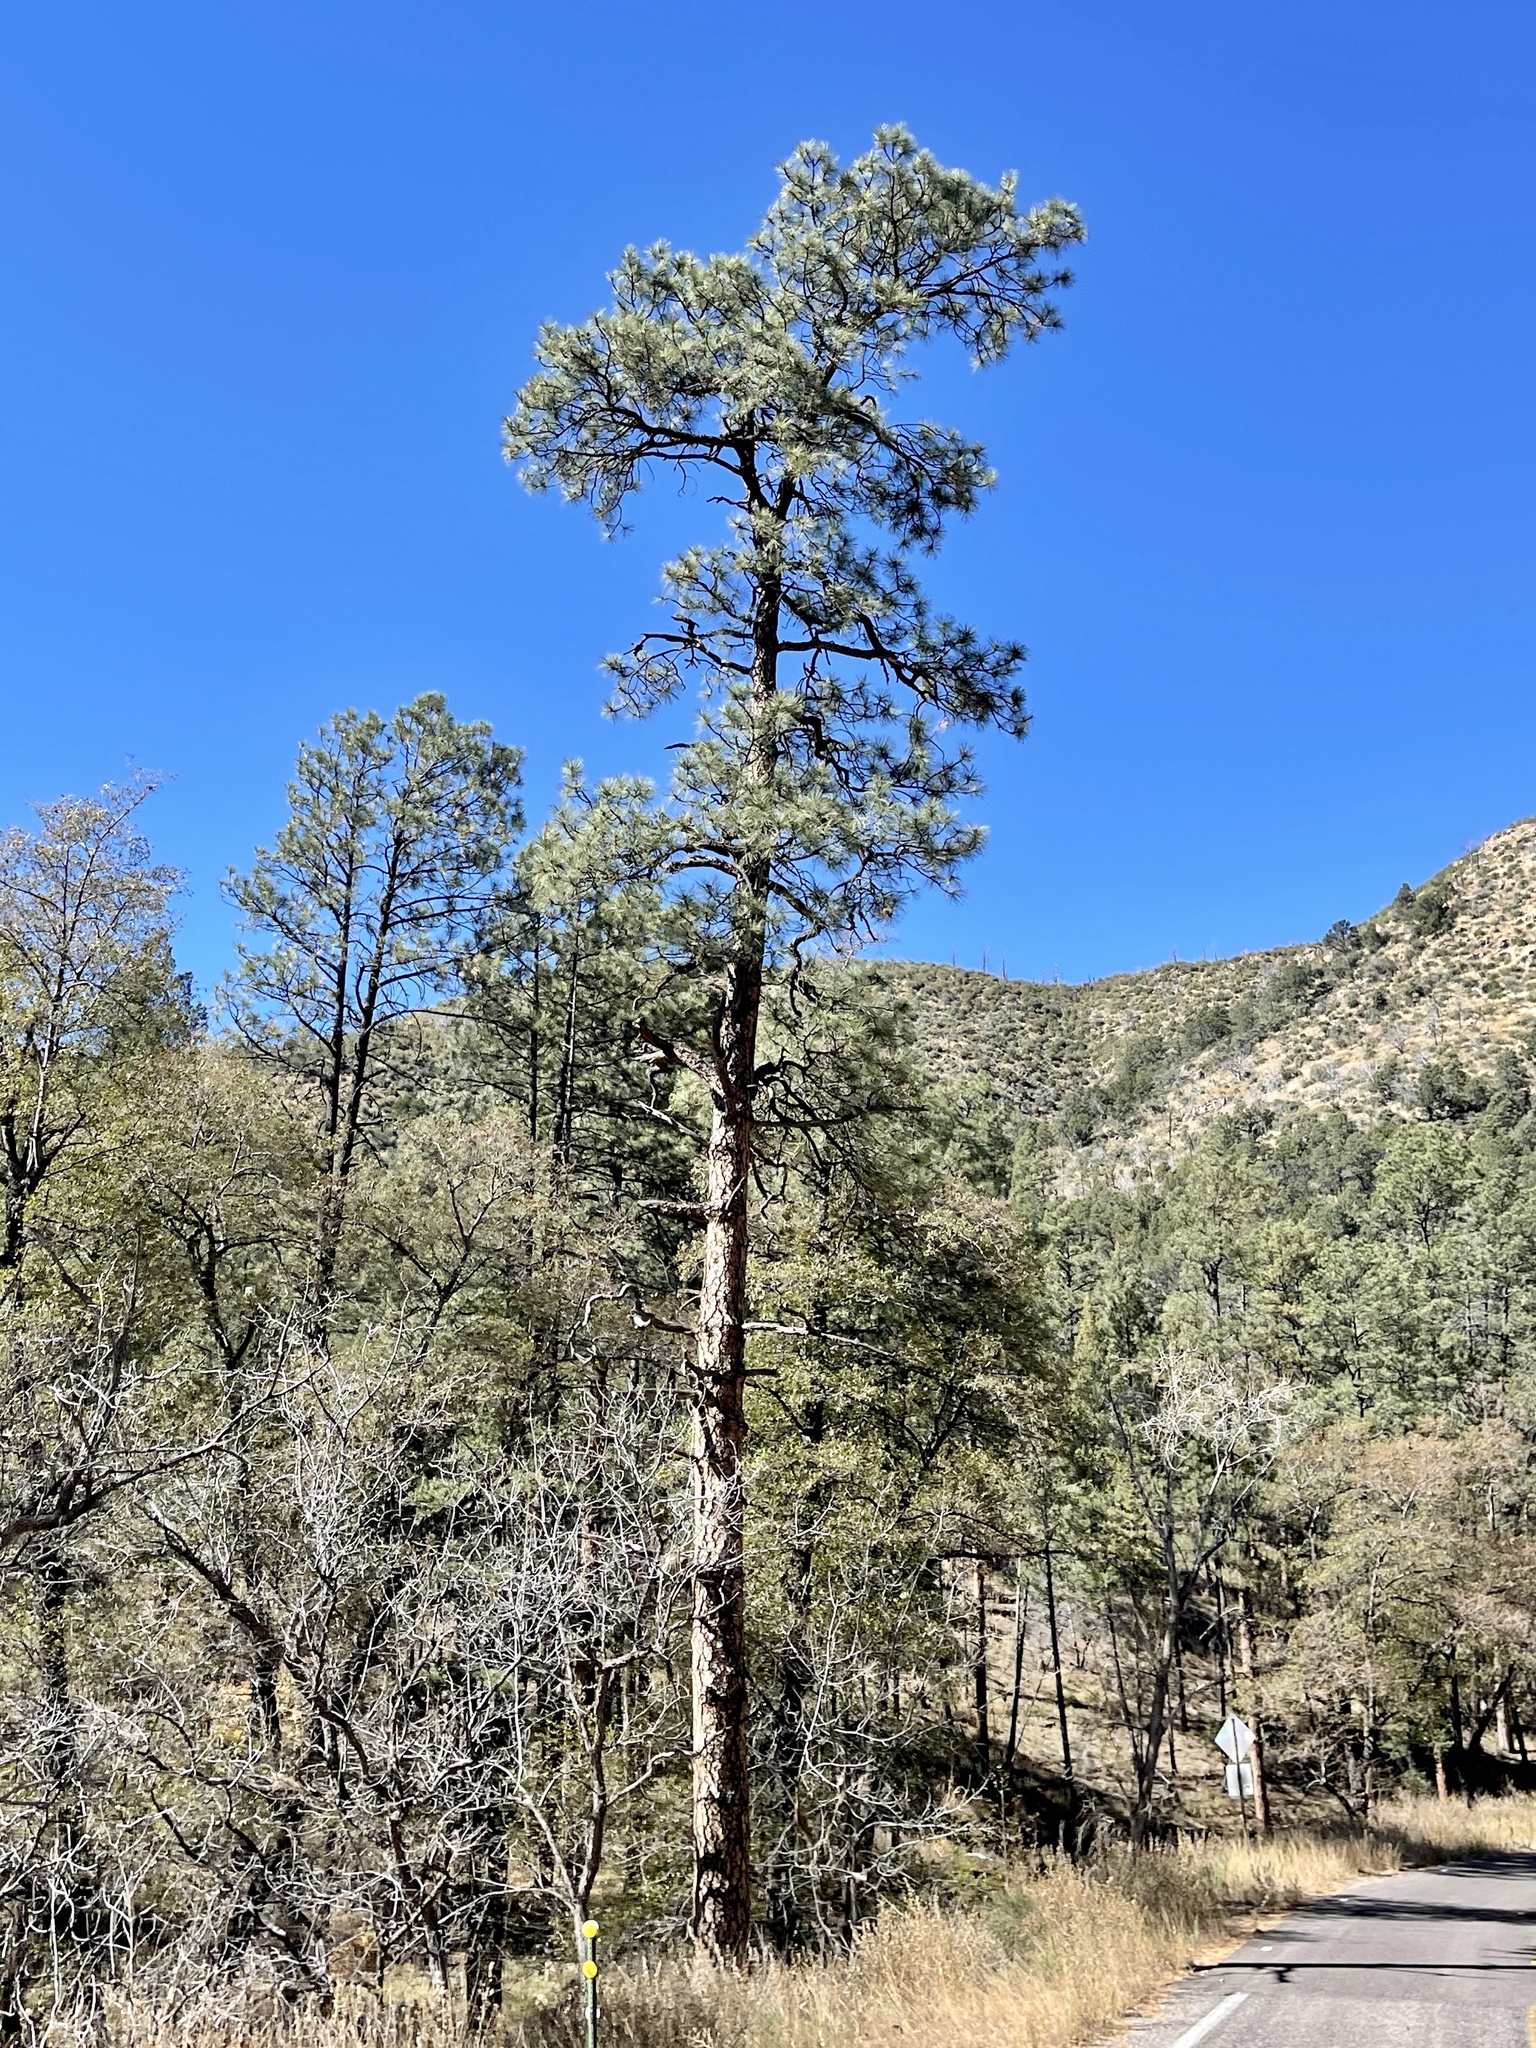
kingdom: Plantae
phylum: Tracheophyta
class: Pinopsida
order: Pinales
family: Pinaceae
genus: Pinus
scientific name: Pinus ponderosa
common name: Western yellow-pine
